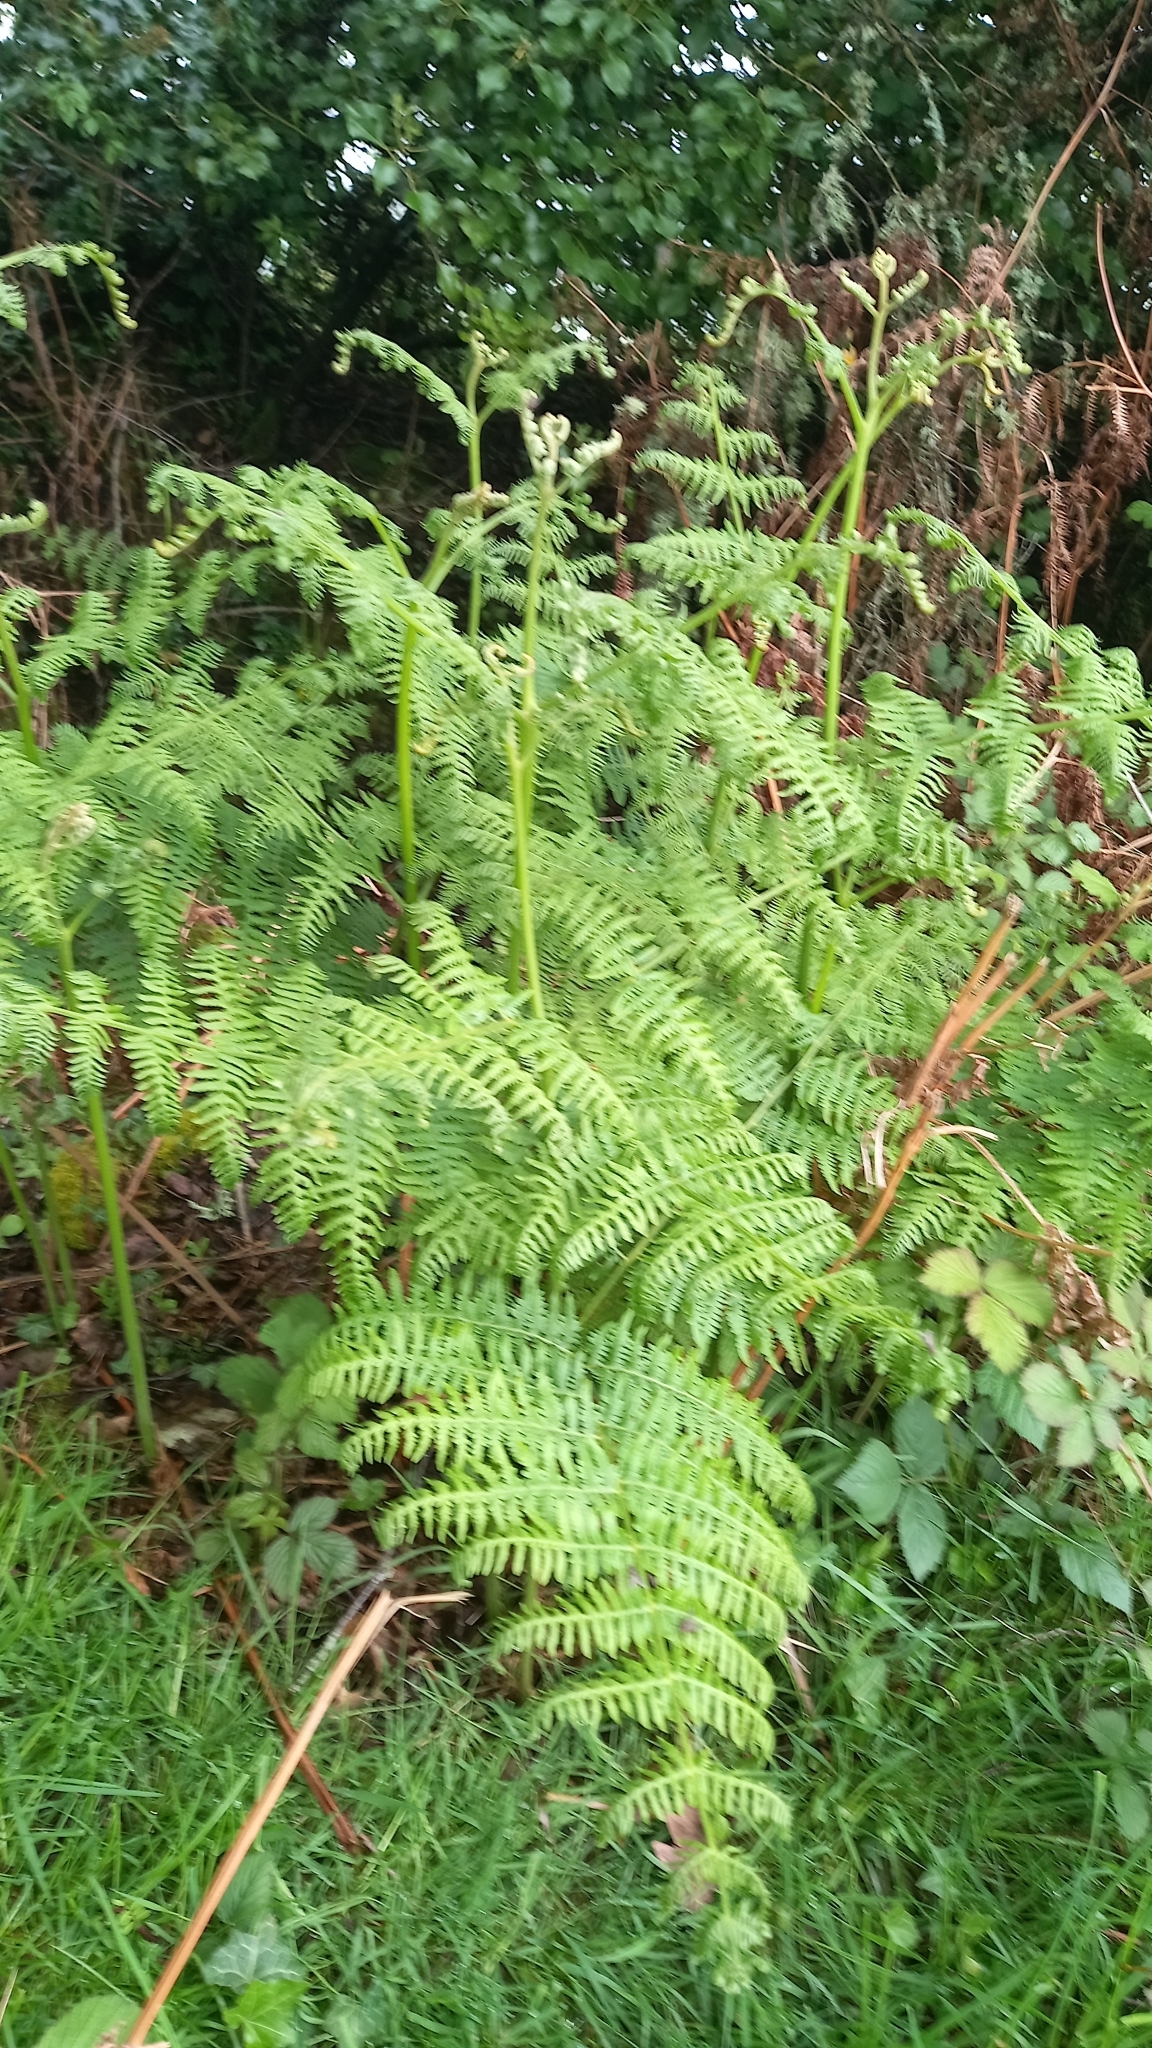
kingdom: Plantae
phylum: Tracheophyta
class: Polypodiopsida
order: Polypodiales
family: Dennstaedtiaceae
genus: Pteridium
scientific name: Pteridium aquilinum
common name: Bracken
